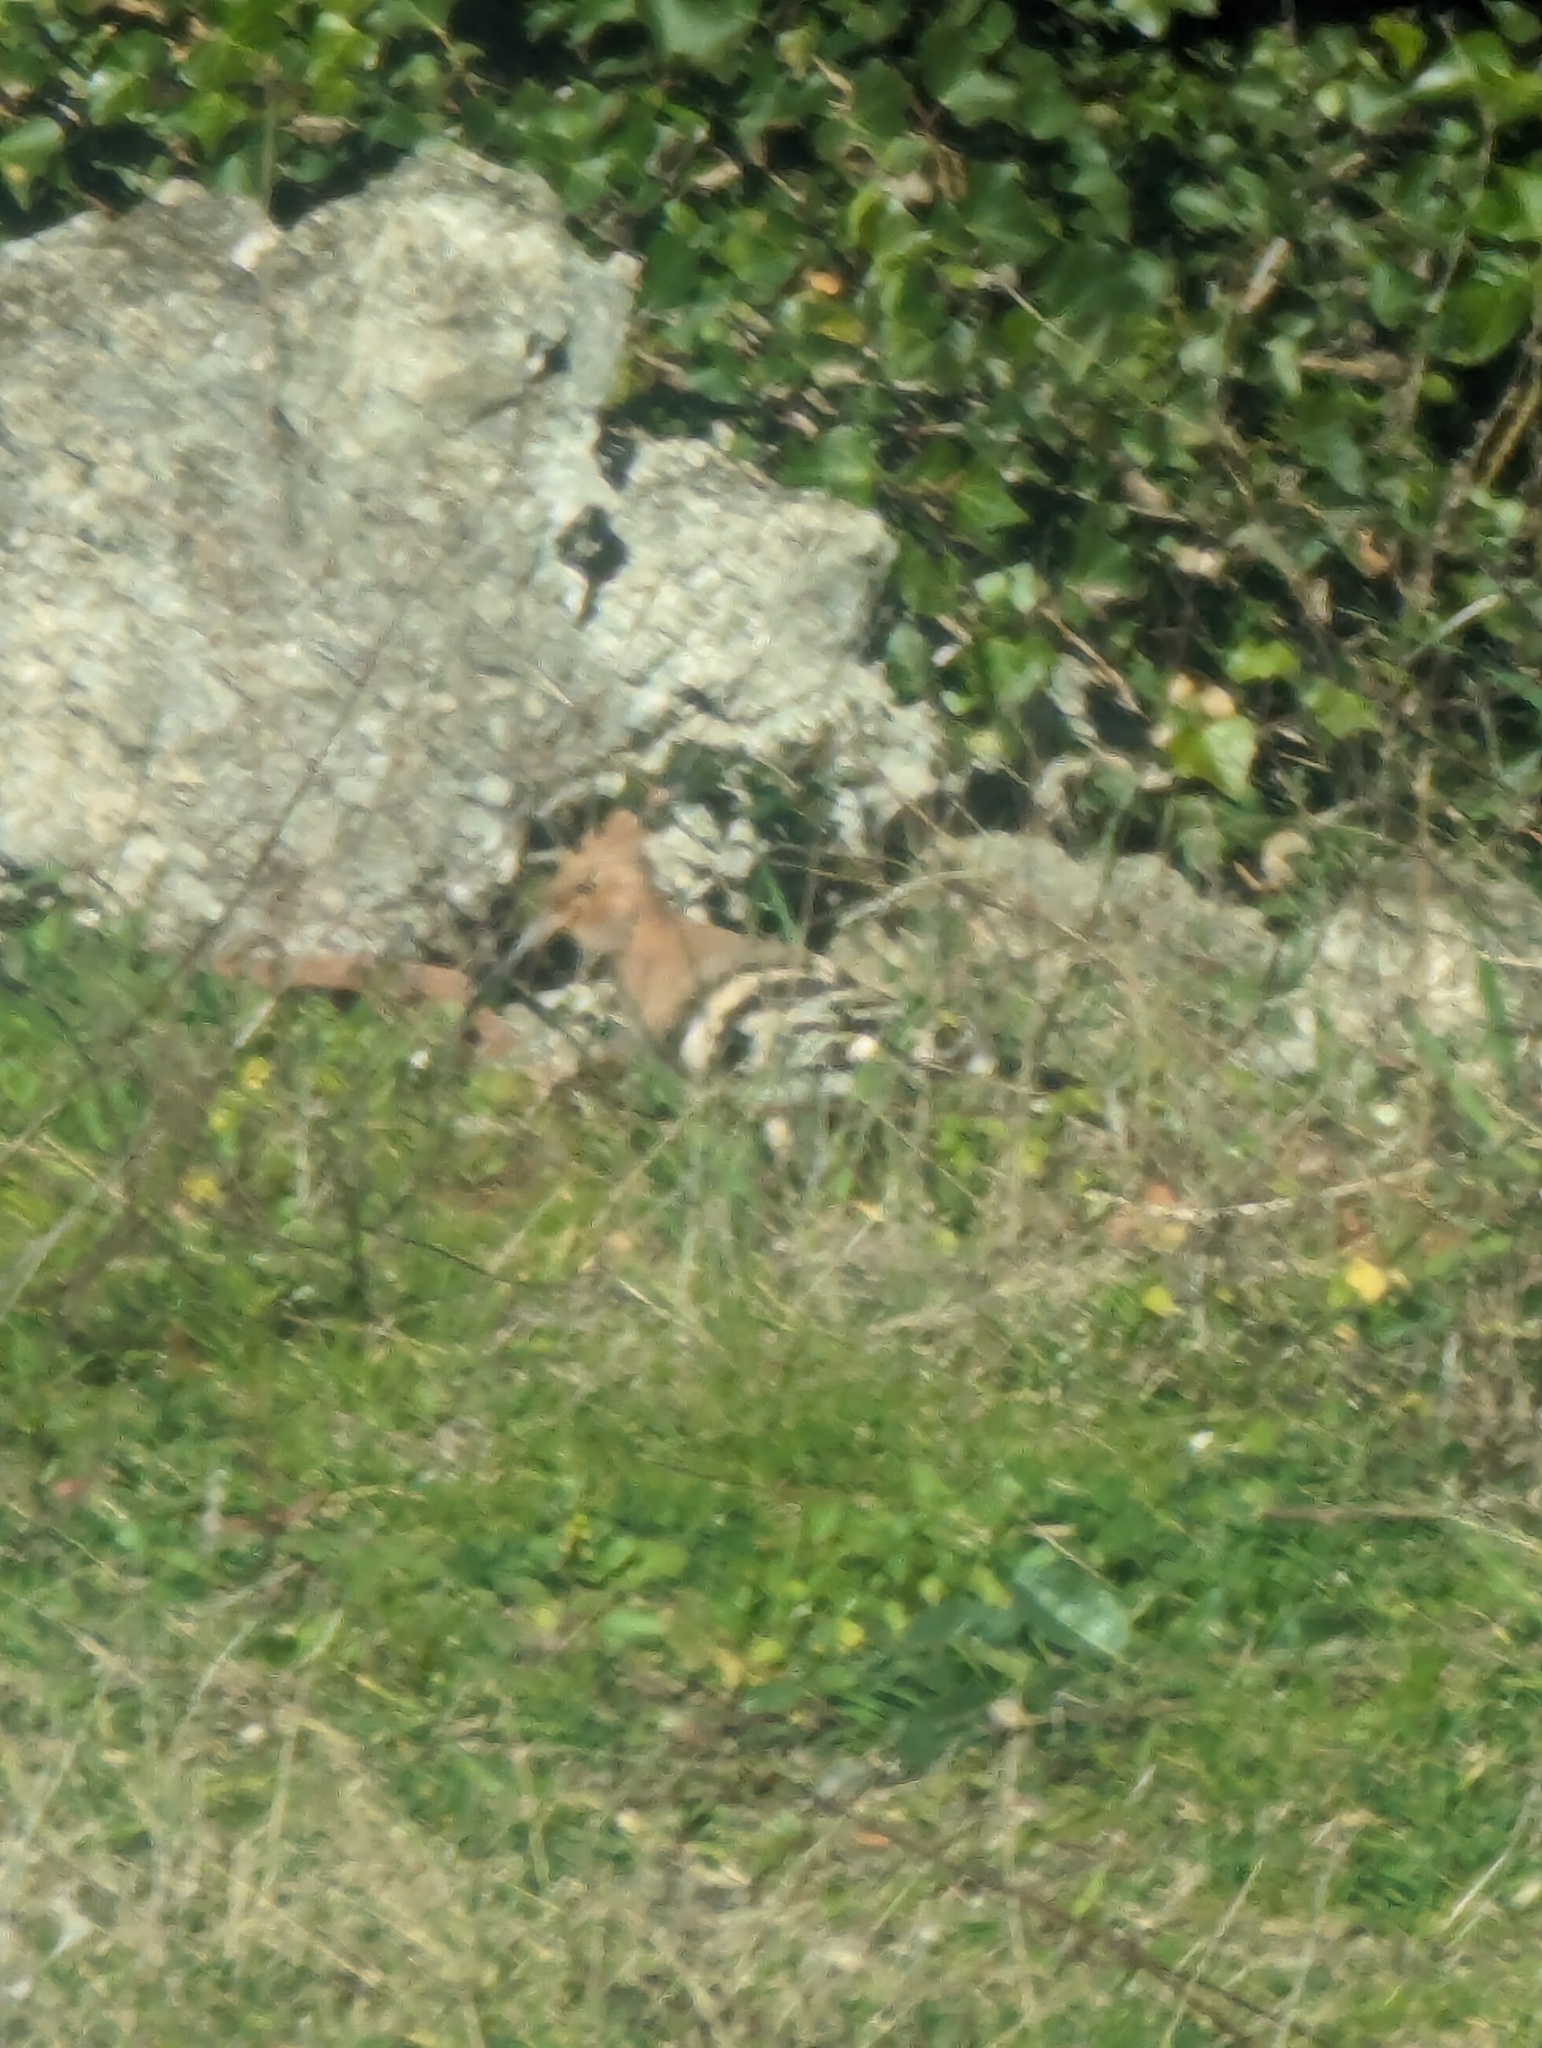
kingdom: Animalia
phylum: Chordata
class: Aves
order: Bucerotiformes
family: Upupidae
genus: Upupa
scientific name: Upupa epops
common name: Eurasian hoopoe
